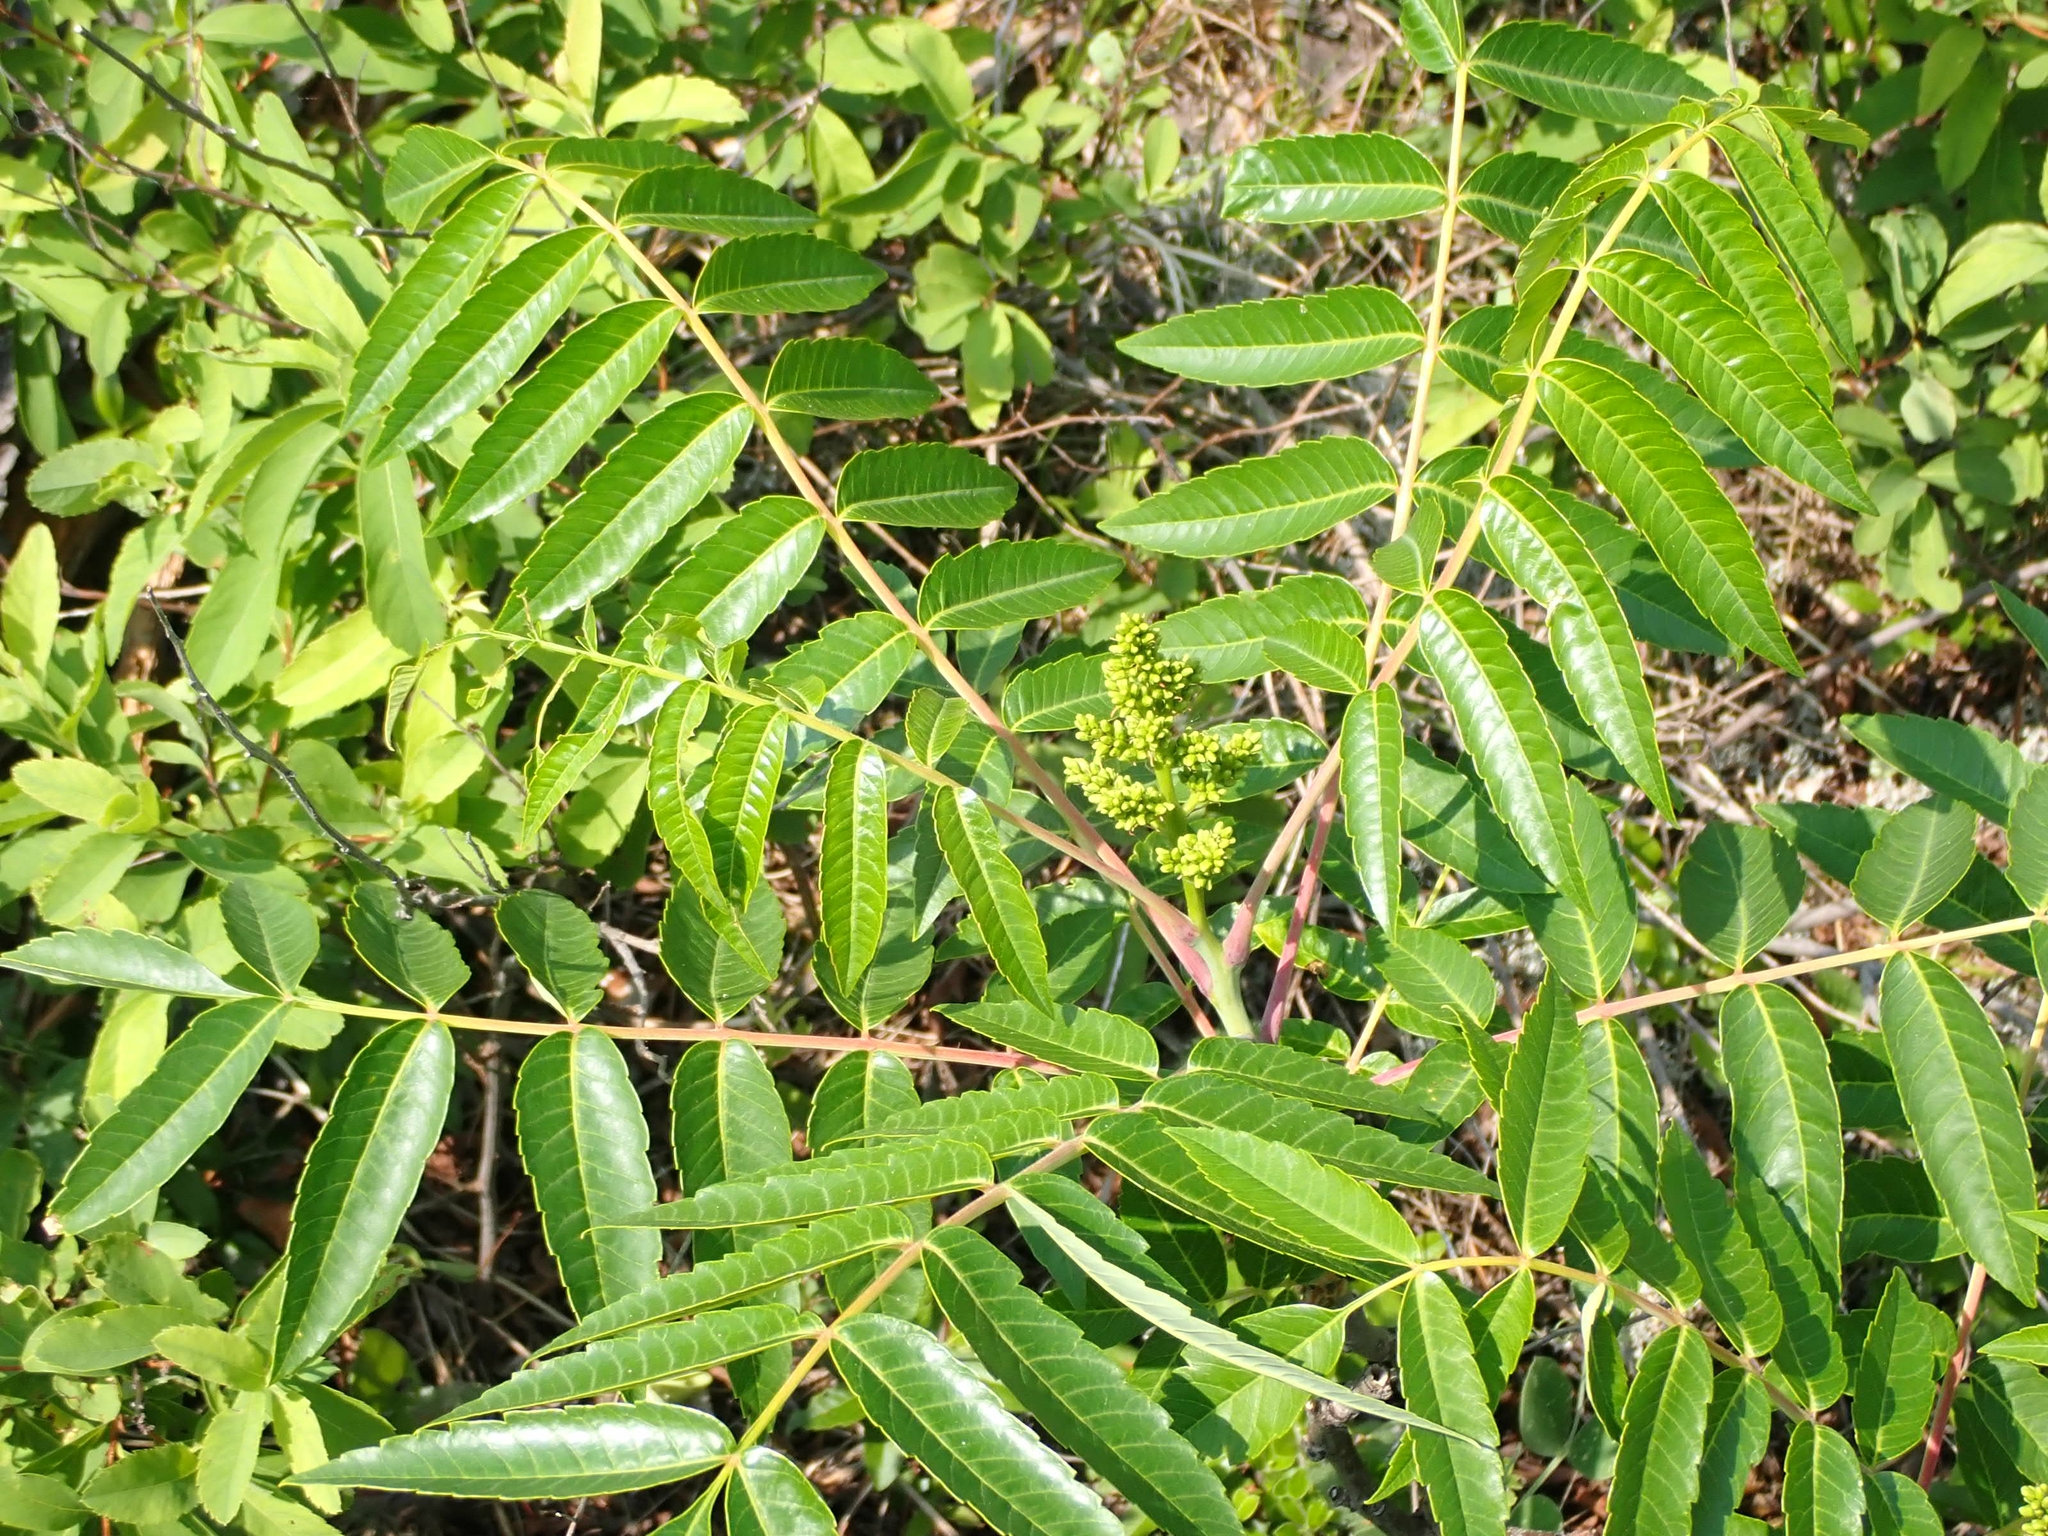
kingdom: Plantae
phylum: Tracheophyta
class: Magnoliopsida
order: Sapindales
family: Anacardiaceae
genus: Rhus
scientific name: Rhus glabra
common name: Scarlet sumac
